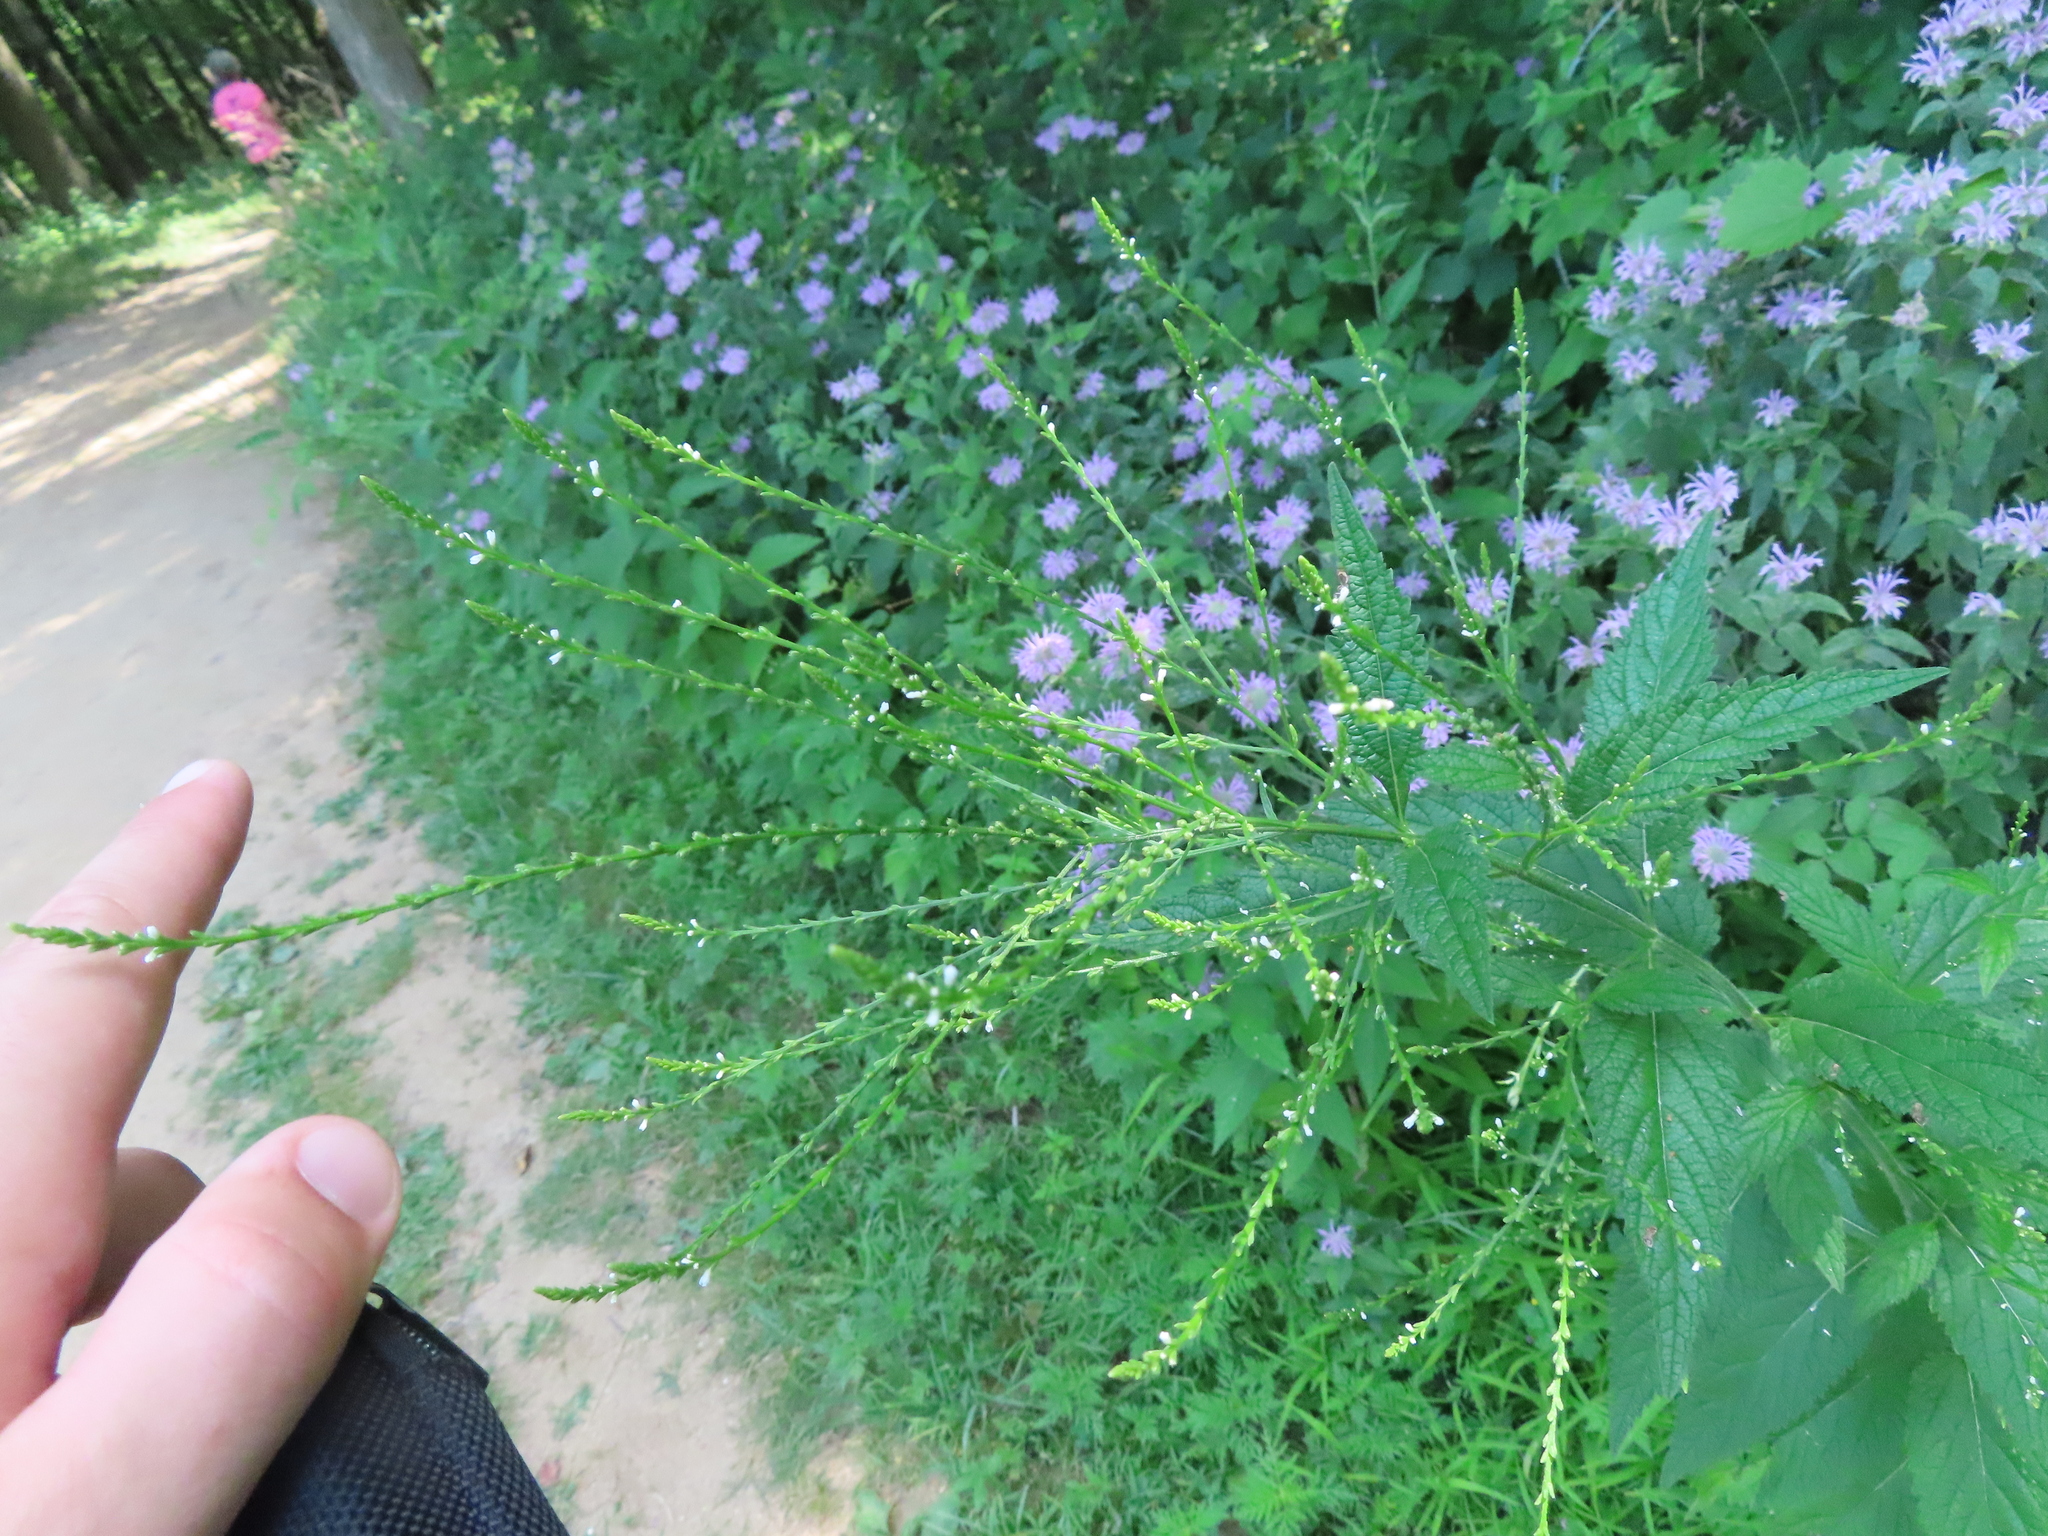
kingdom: Plantae
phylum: Tracheophyta
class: Magnoliopsida
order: Lamiales
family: Verbenaceae
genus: Verbena
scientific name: Verbena urticifolia
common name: Nettle-leaved vervain
